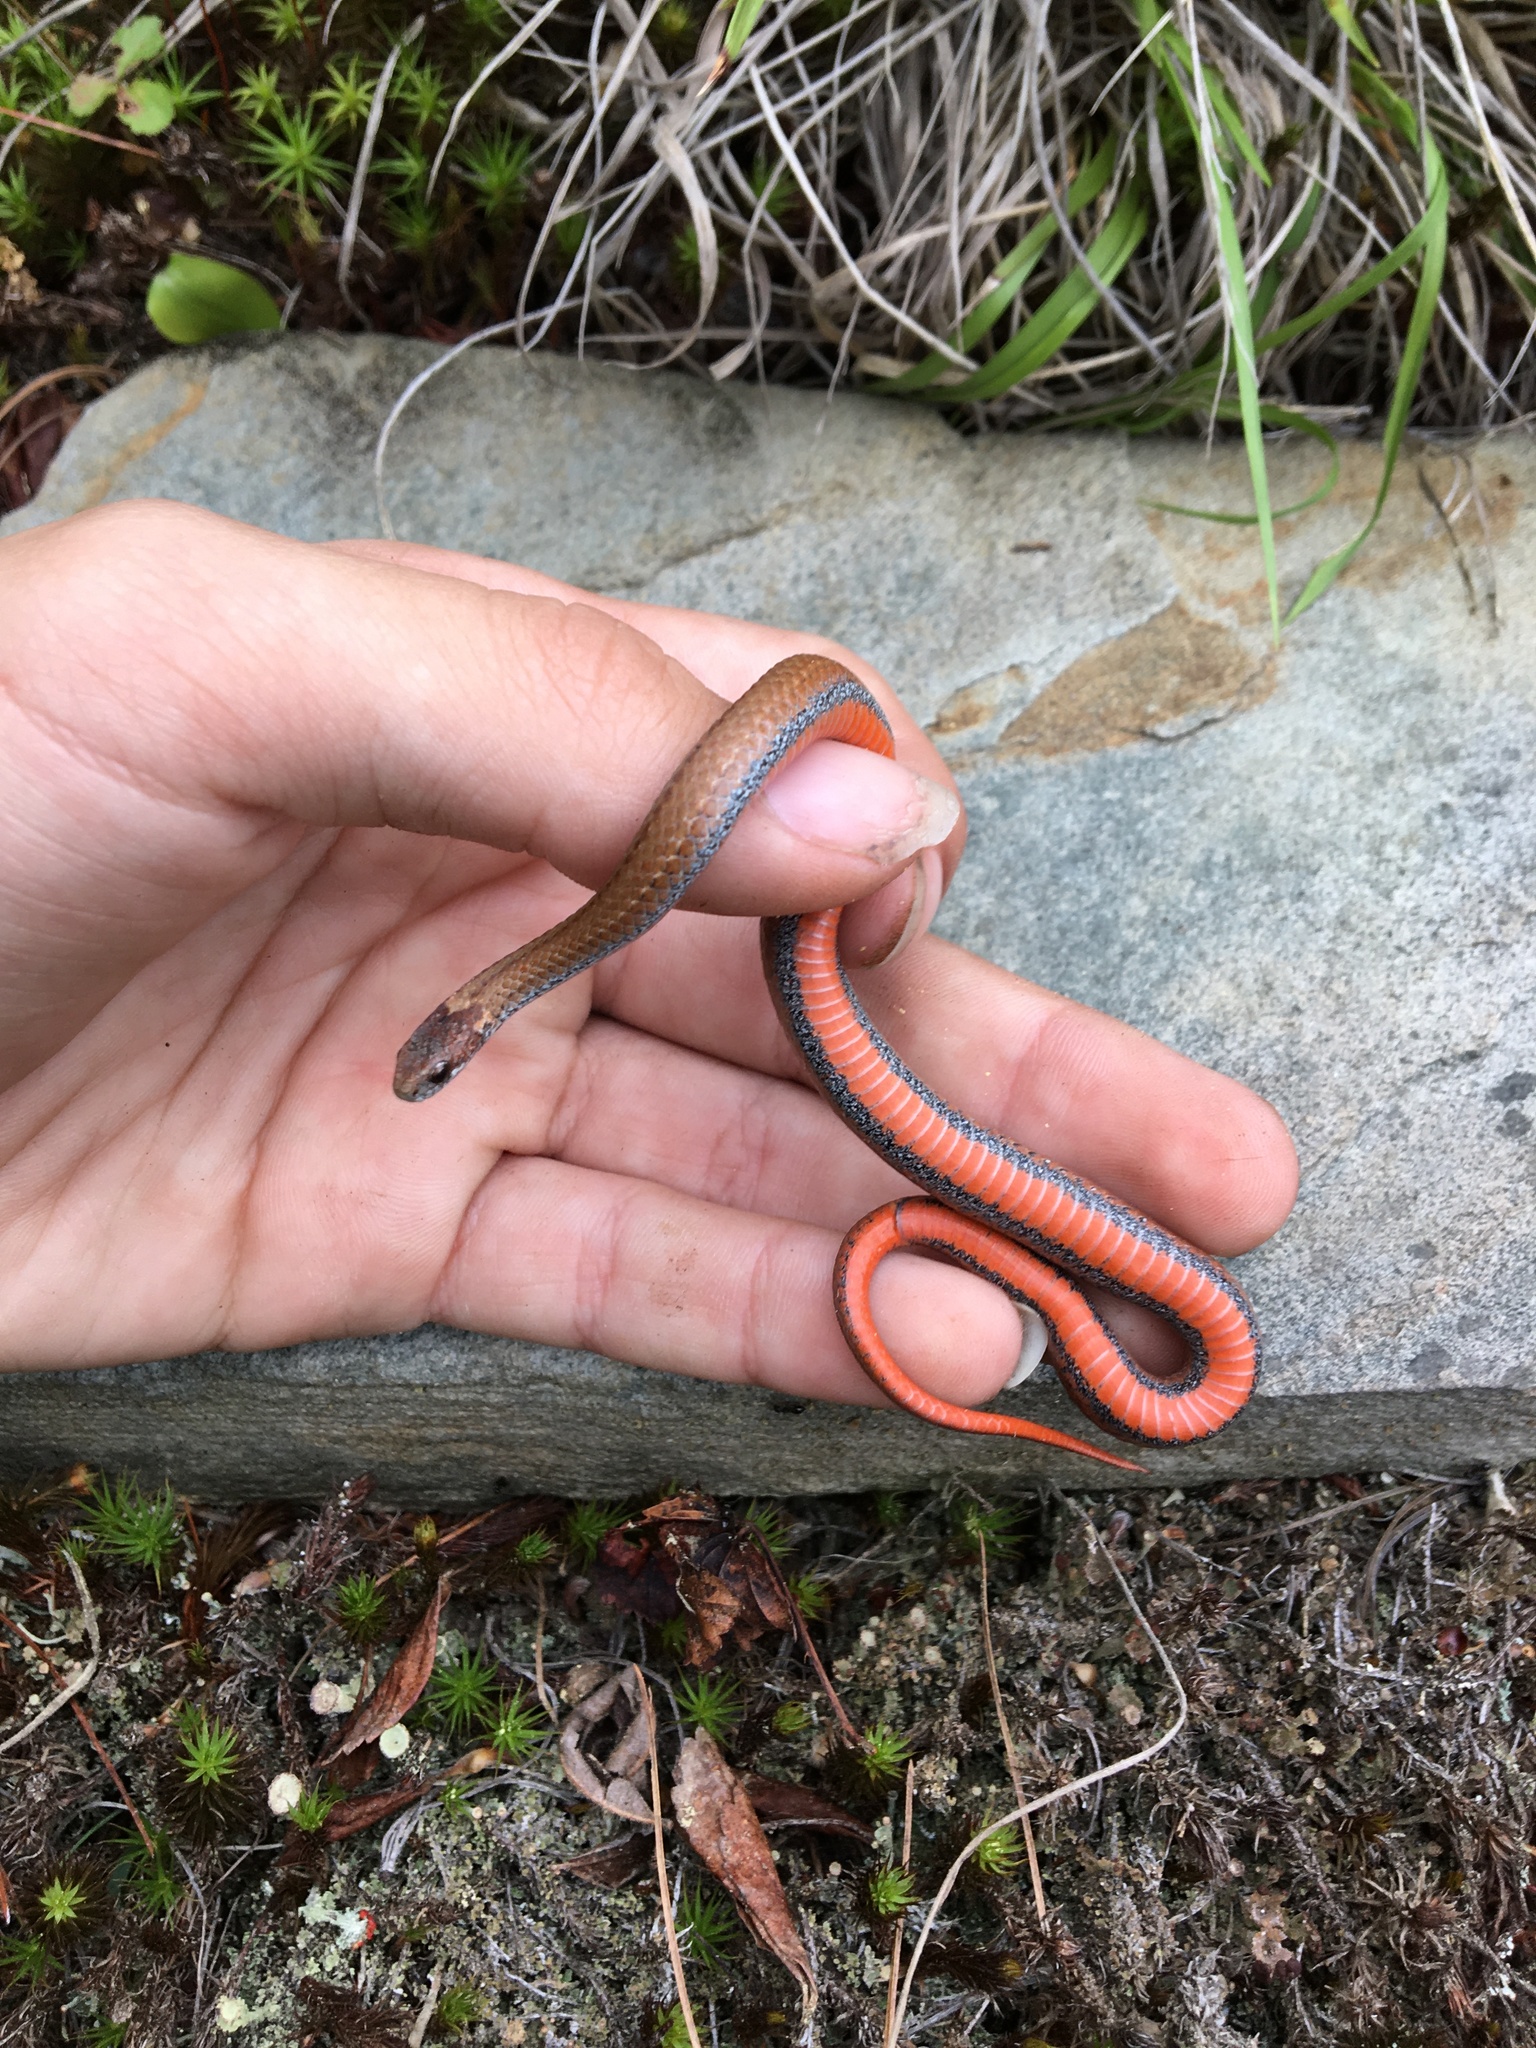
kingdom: Animalia
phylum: Chordata
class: Squamata
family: Colubridae
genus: Storeria
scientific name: Storeria occipitomaculata
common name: Redbelly snake
